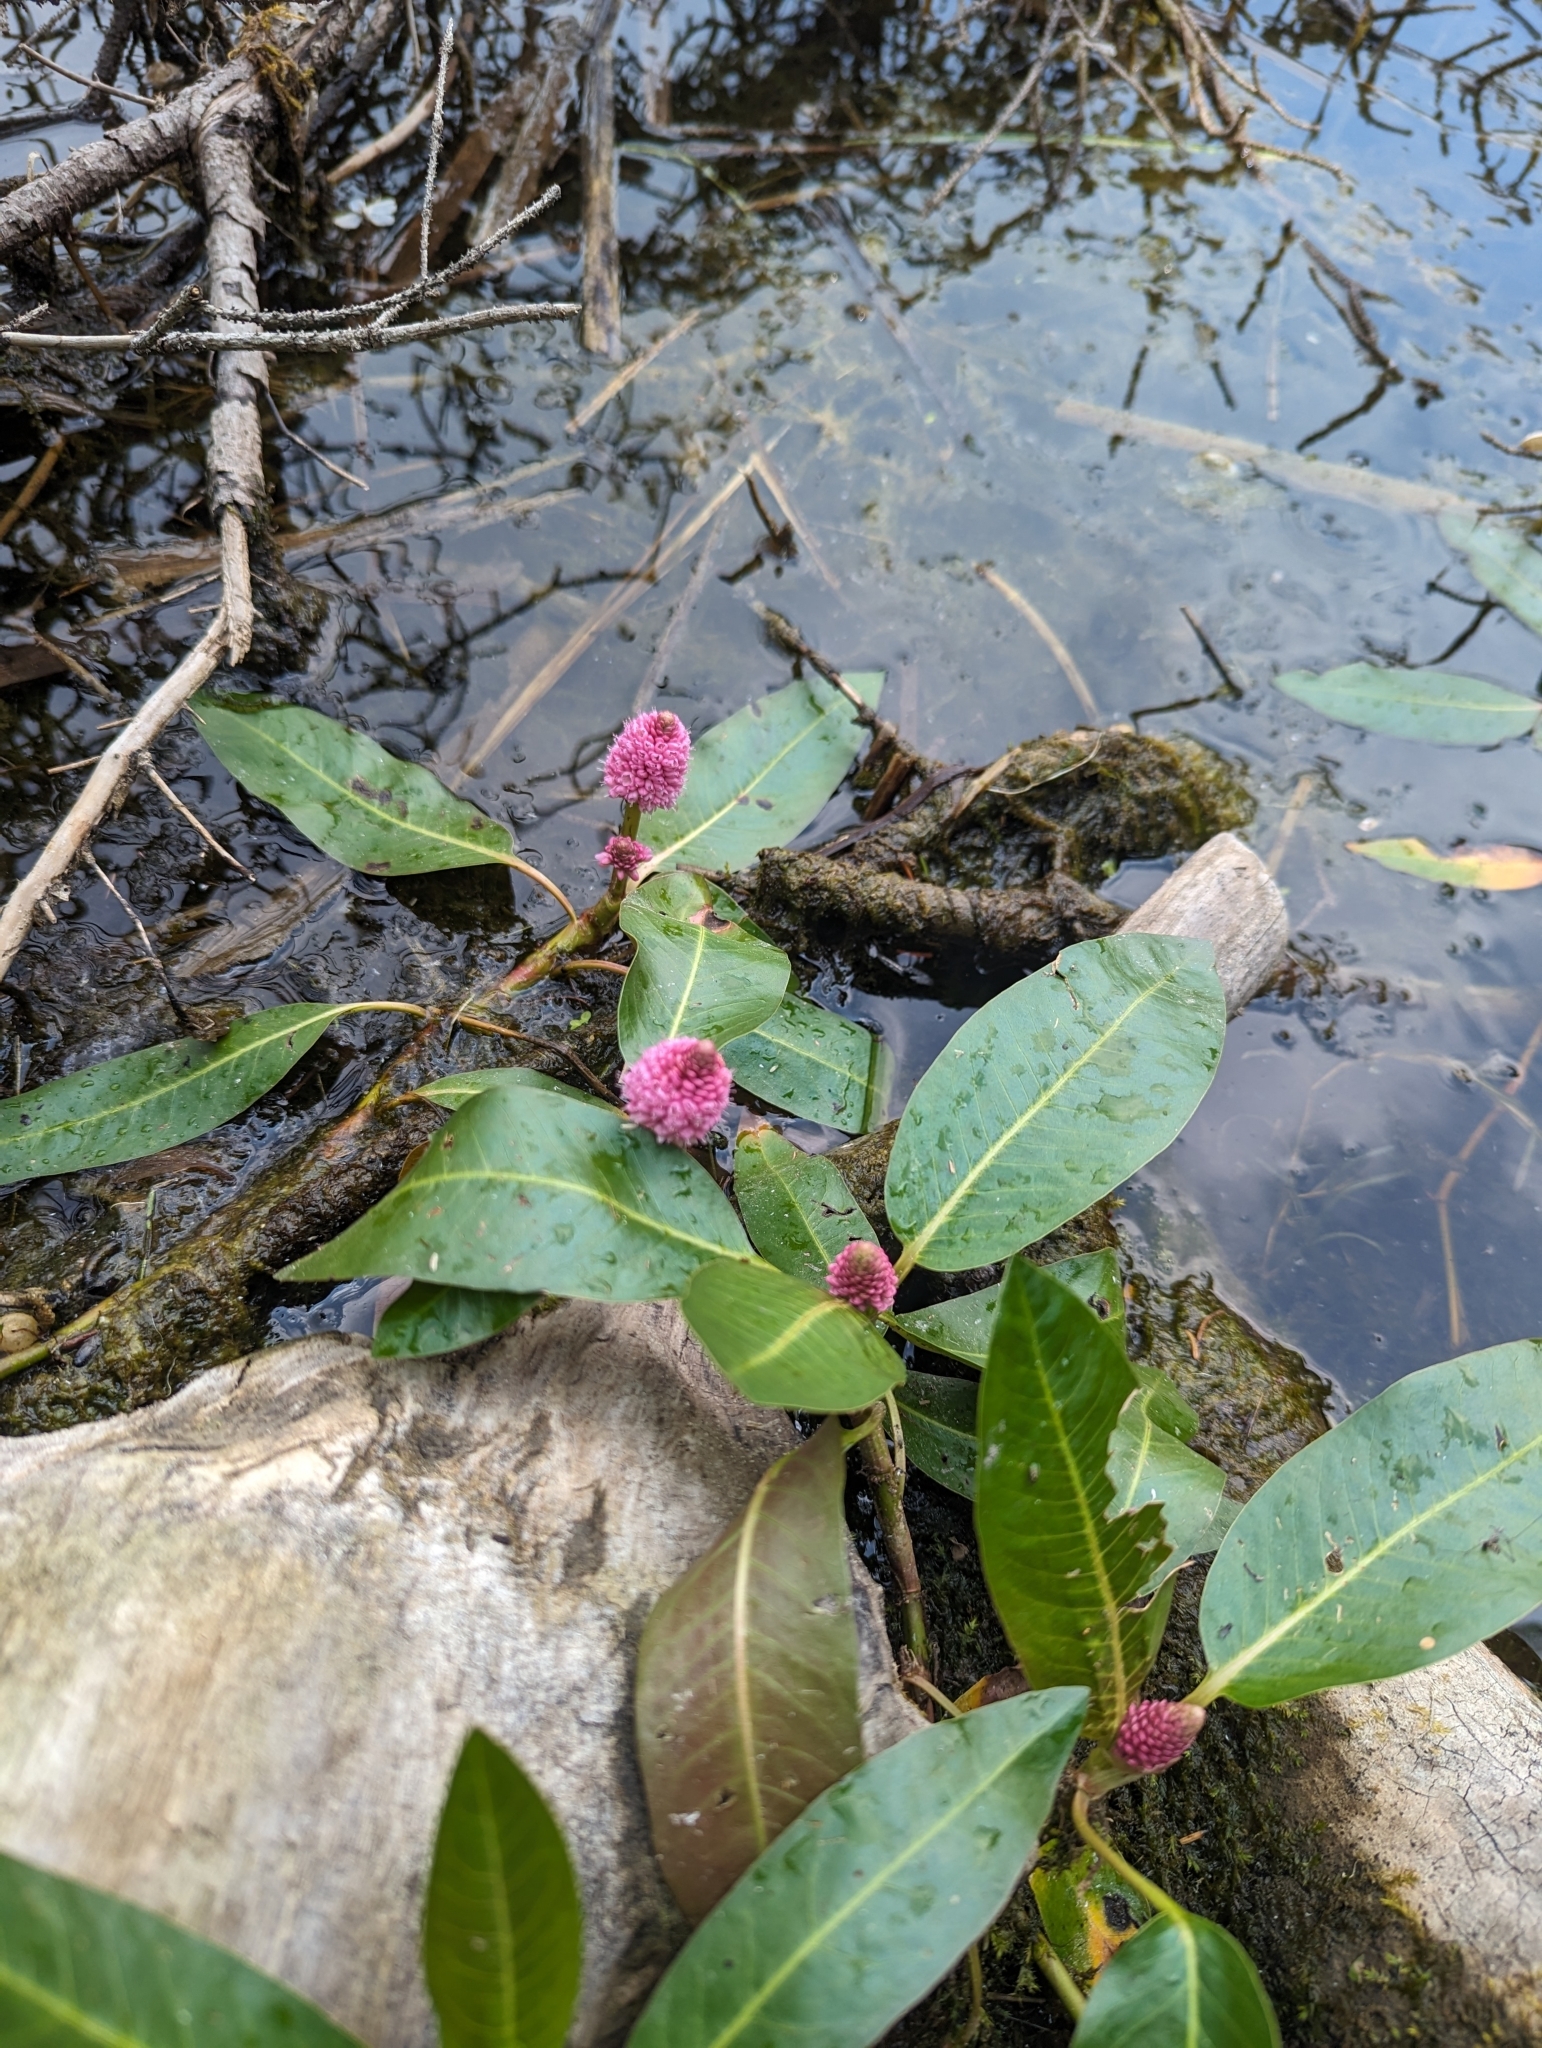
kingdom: Plantae
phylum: Tracheophyta
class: Magnoliopsida
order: Caryophyllales
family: Polygonaceae
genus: Persicaria
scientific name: Persicaria amphibia
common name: Amphibious bistort
